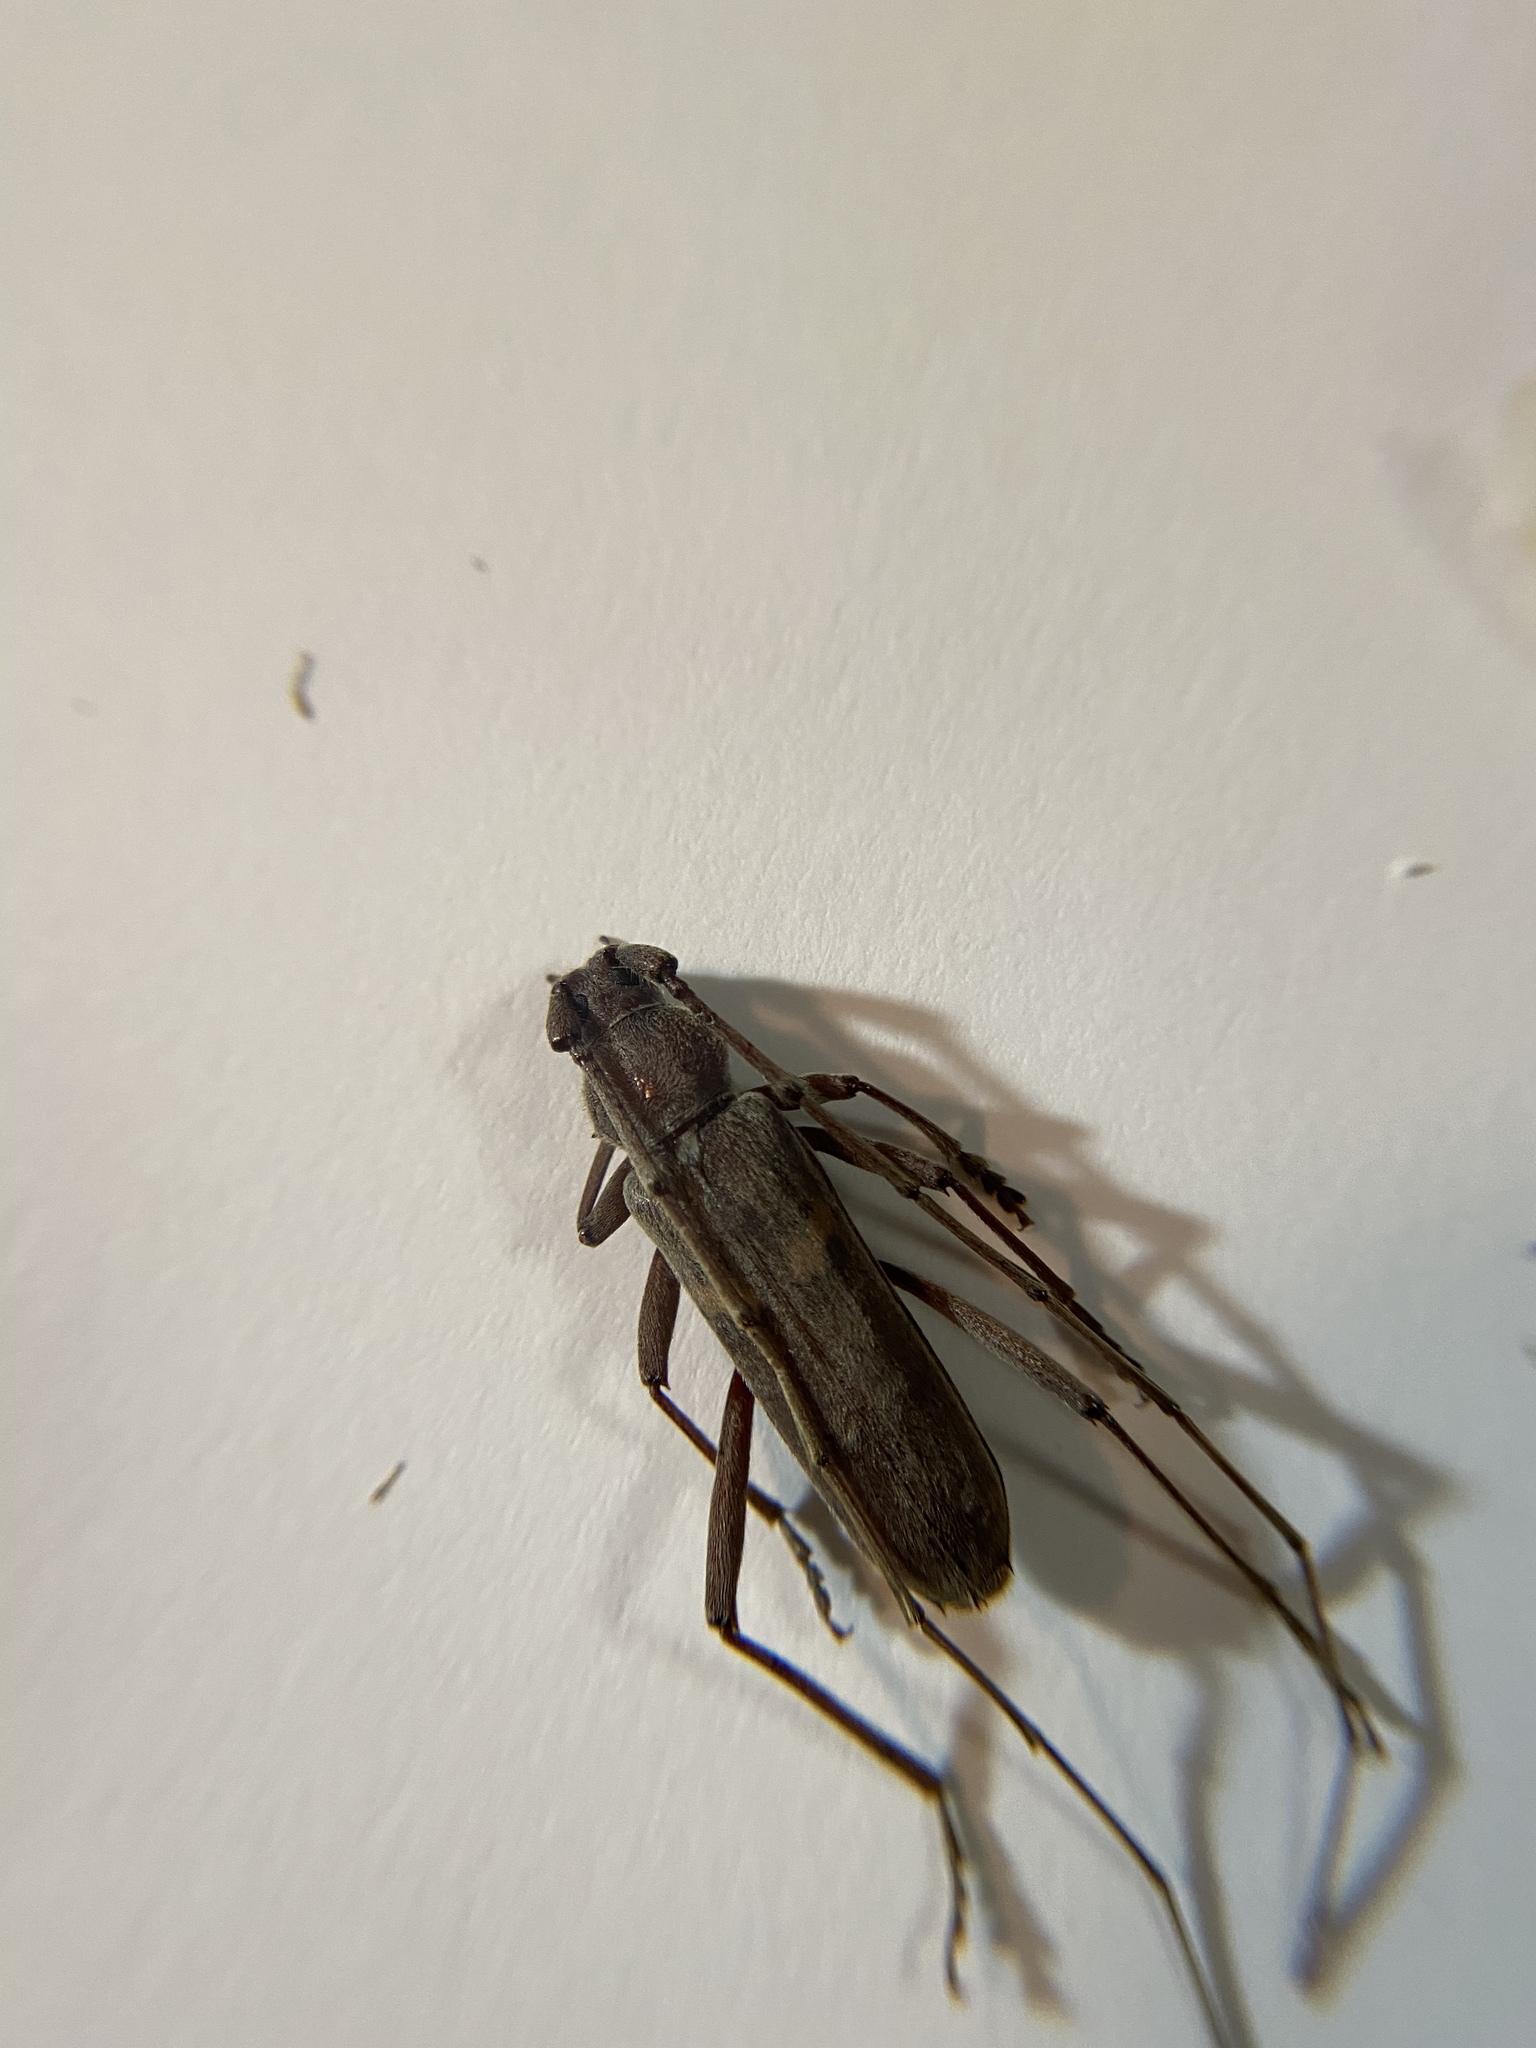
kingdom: Animalia
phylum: Arthropoda
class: Insecta
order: Coleoptera
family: Cerambycidae
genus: Knulliana
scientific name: Knulliana cincta
